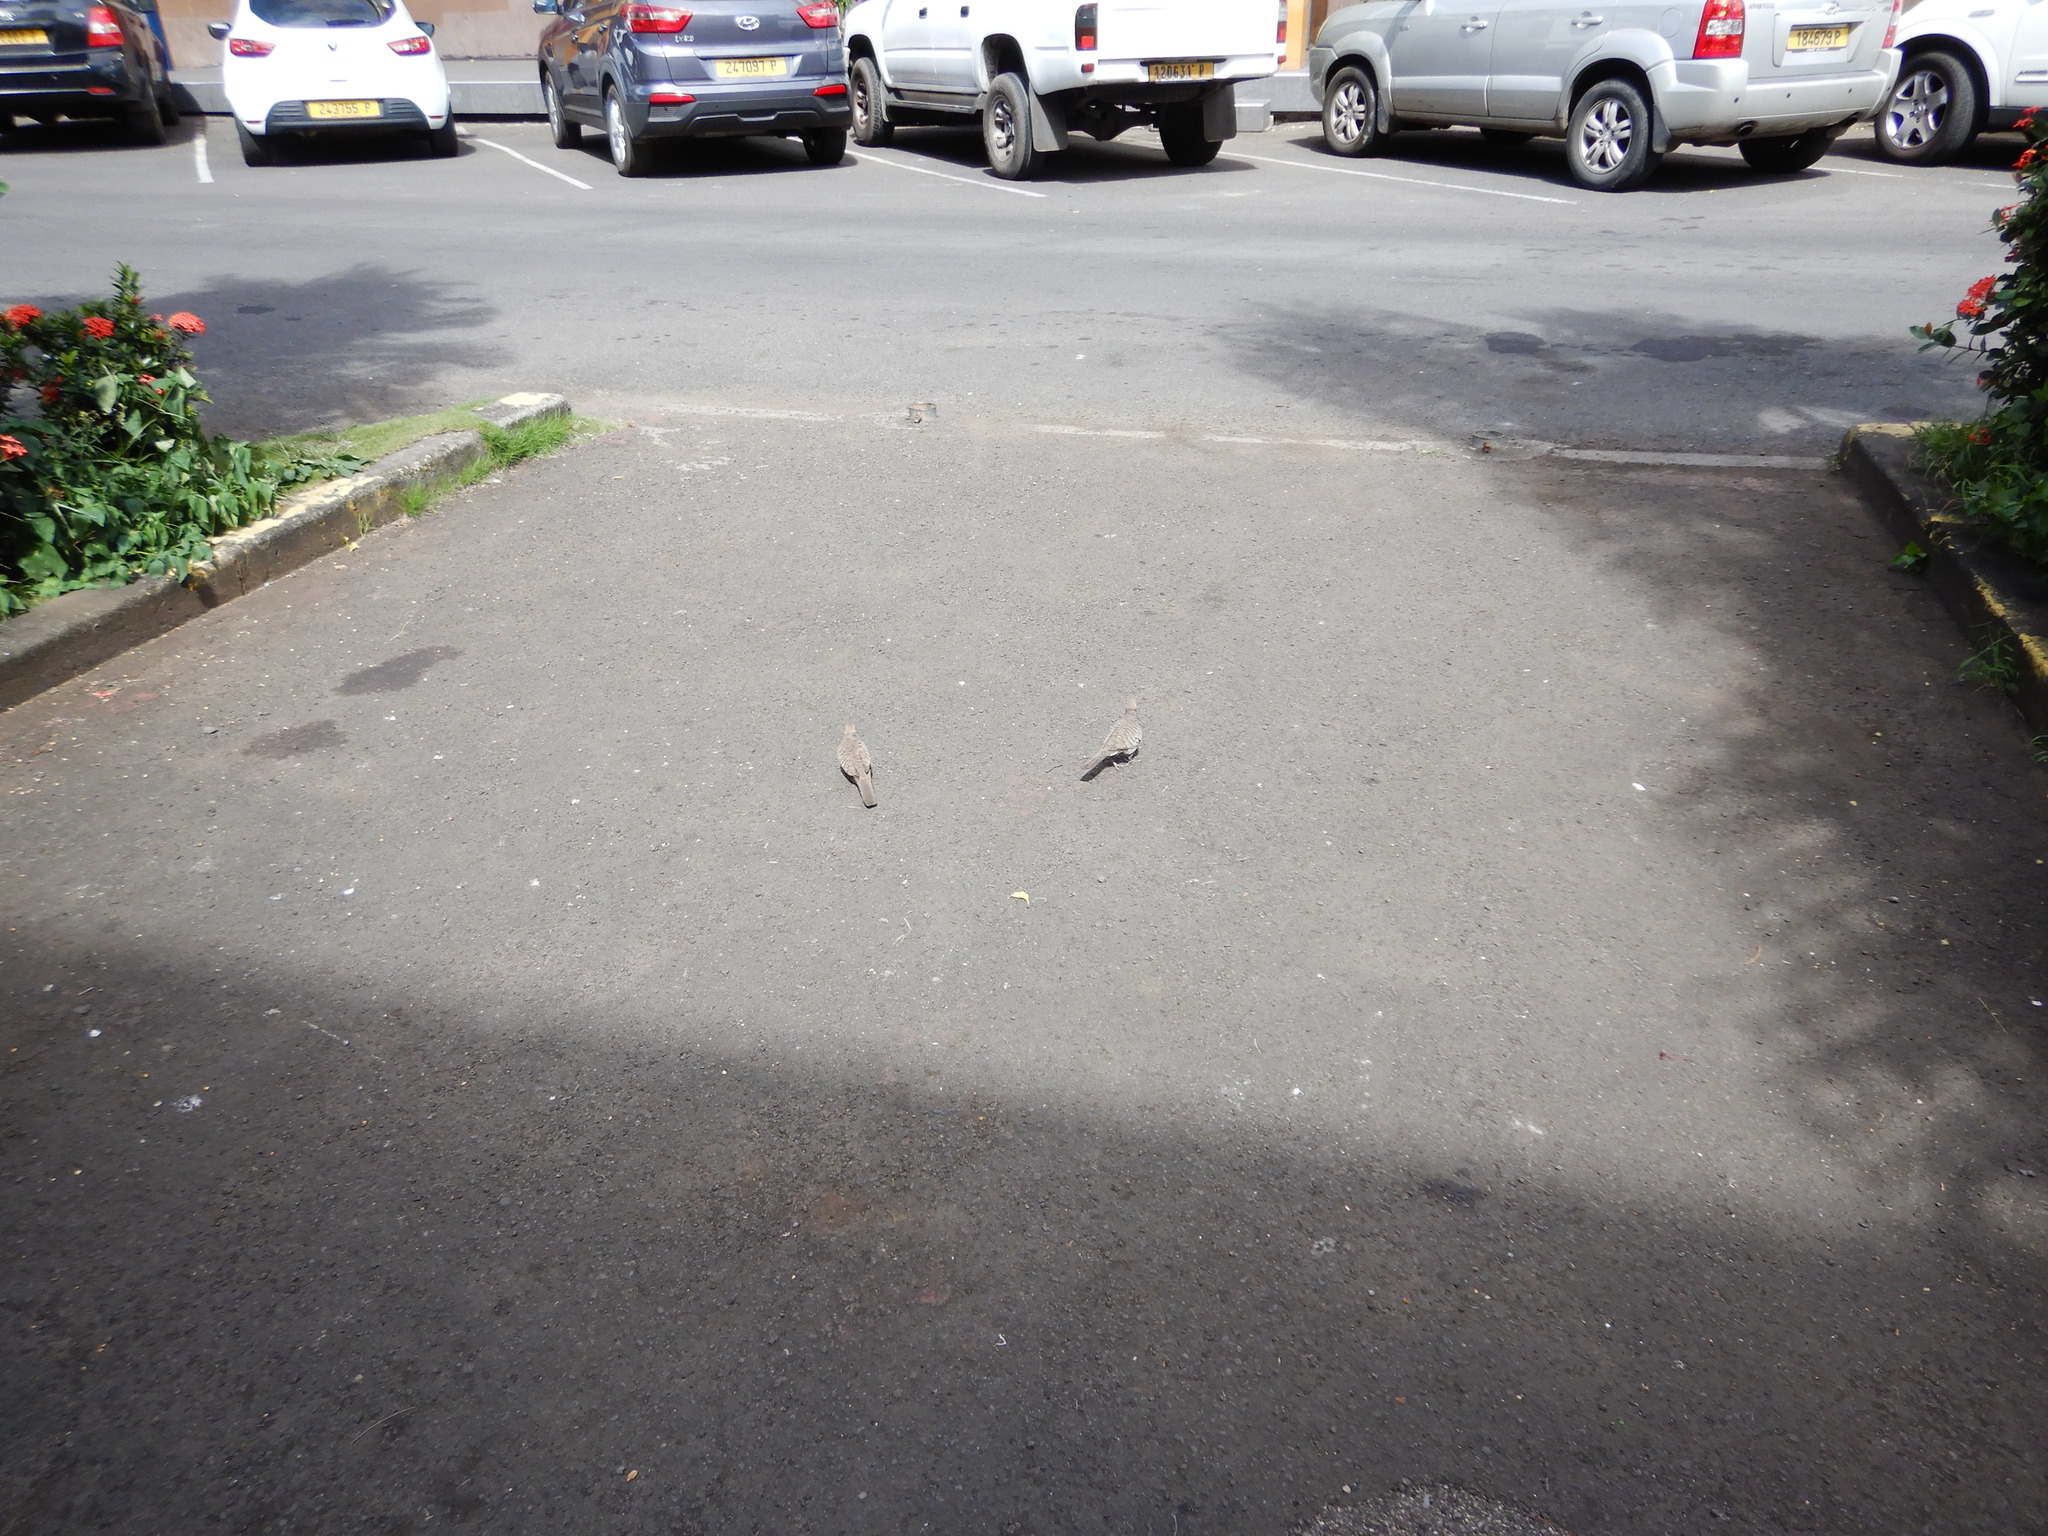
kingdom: Animalia
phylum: Chordata
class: Aves
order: Columbiformes
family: Columbidae
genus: Geopelia
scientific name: Geopelia striata
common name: Zebra dove
